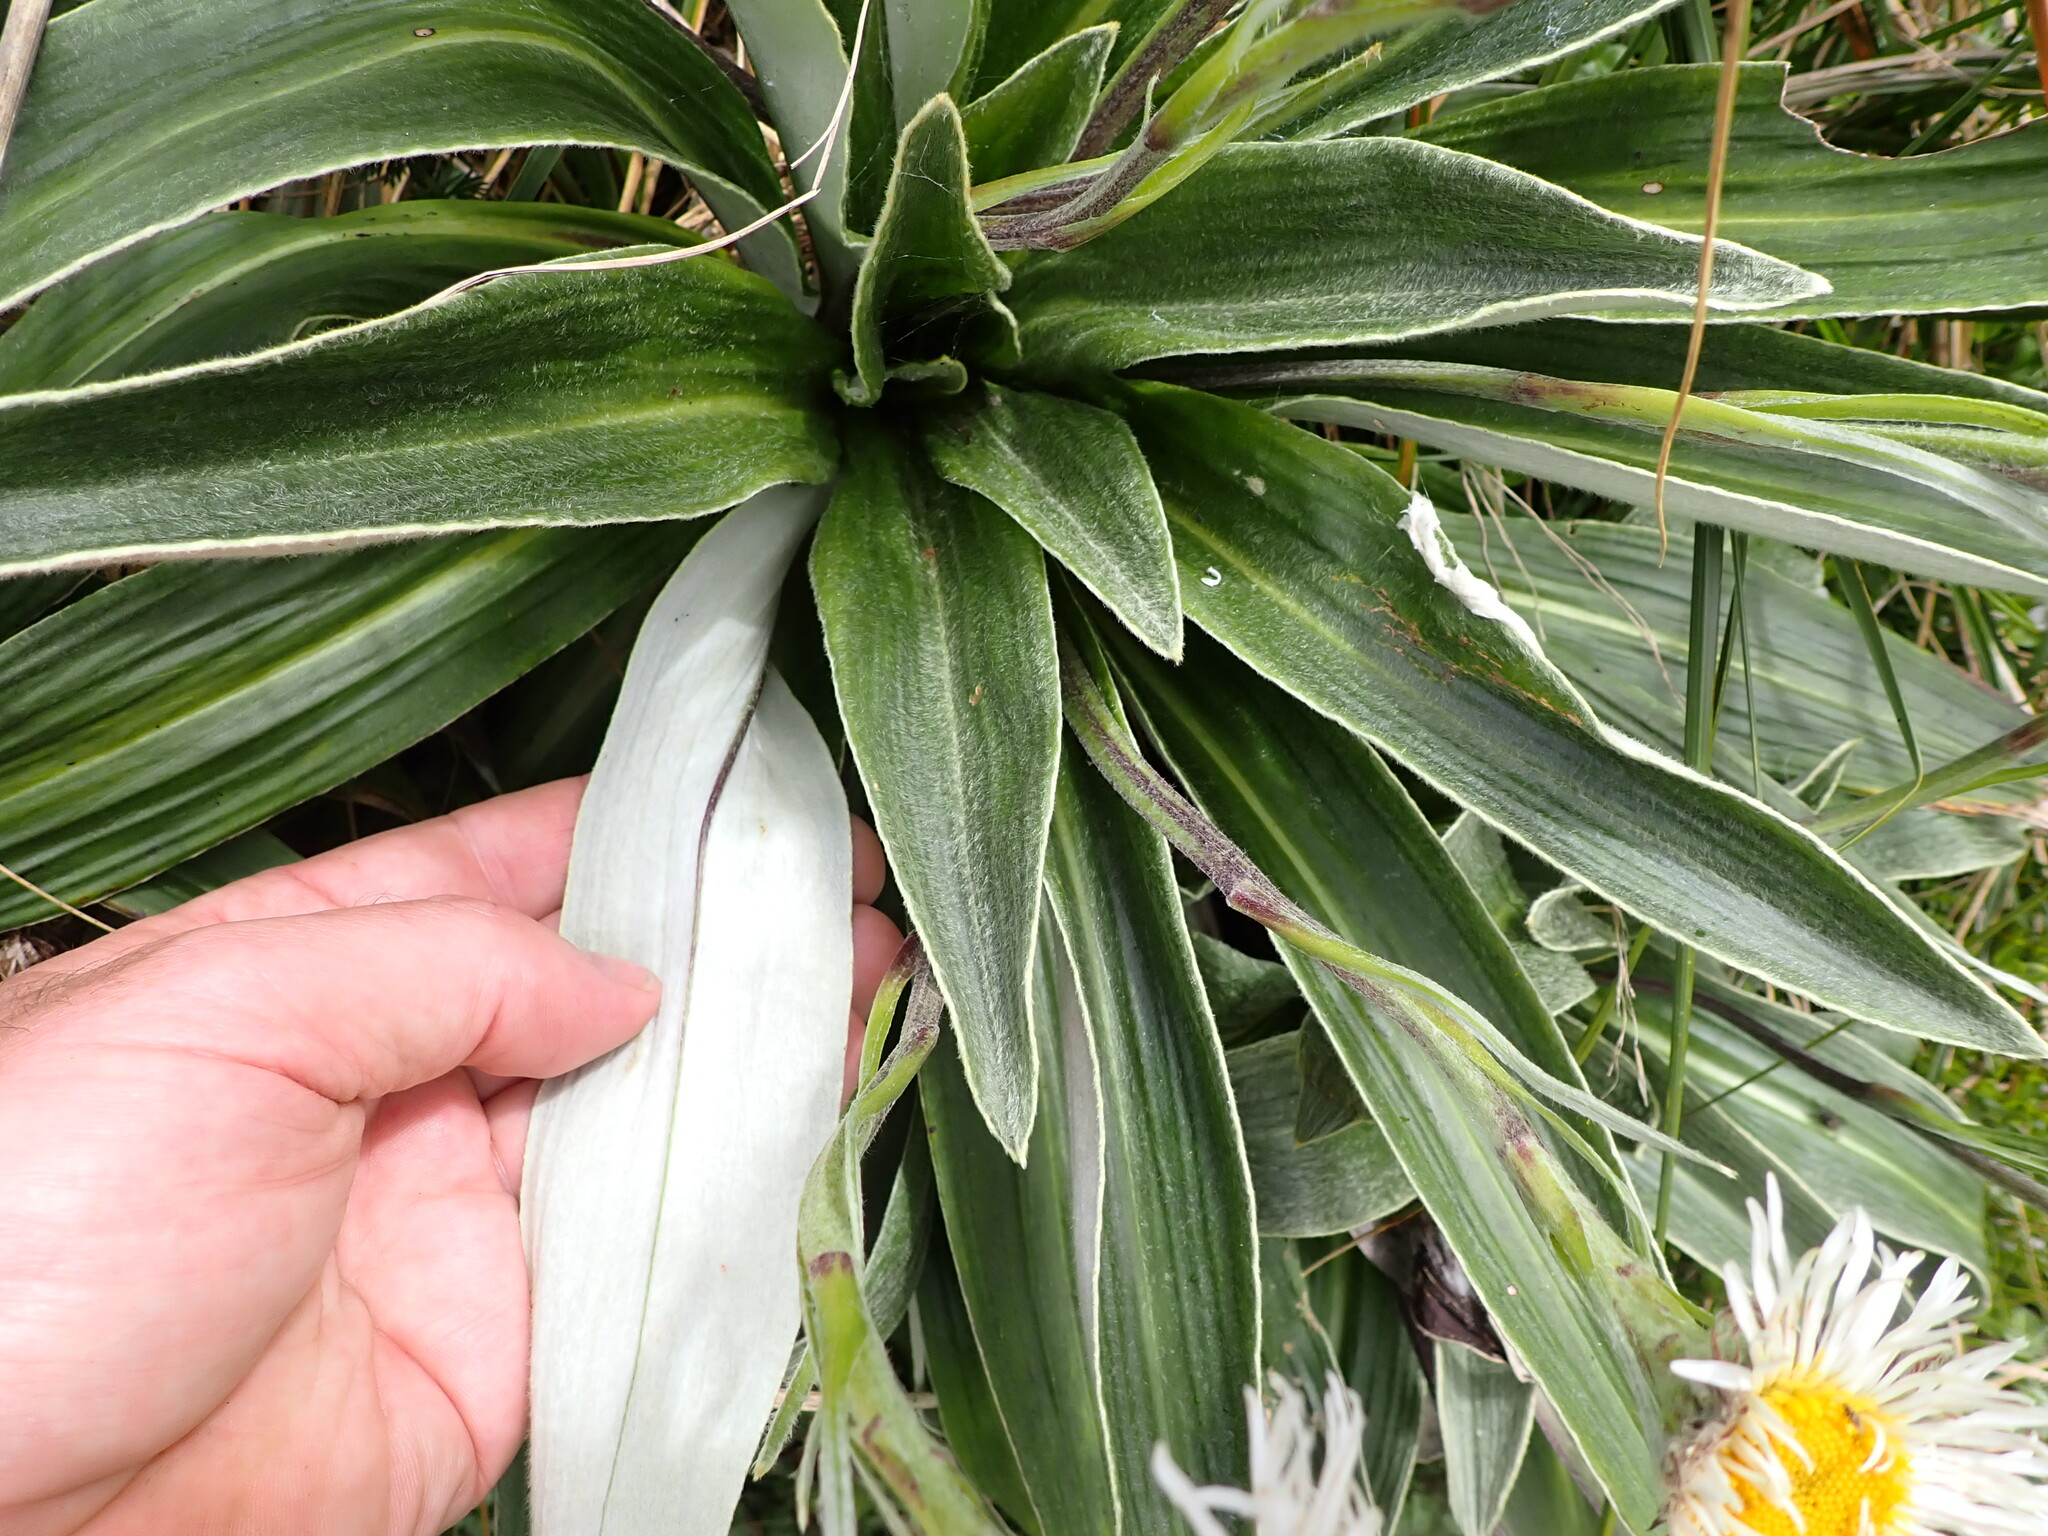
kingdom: Plantae
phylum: Tracheophyta
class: Magnoliopsida
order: Asterales
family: Asteraceae
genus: Celmisia
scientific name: Celmisia verbascifolia
